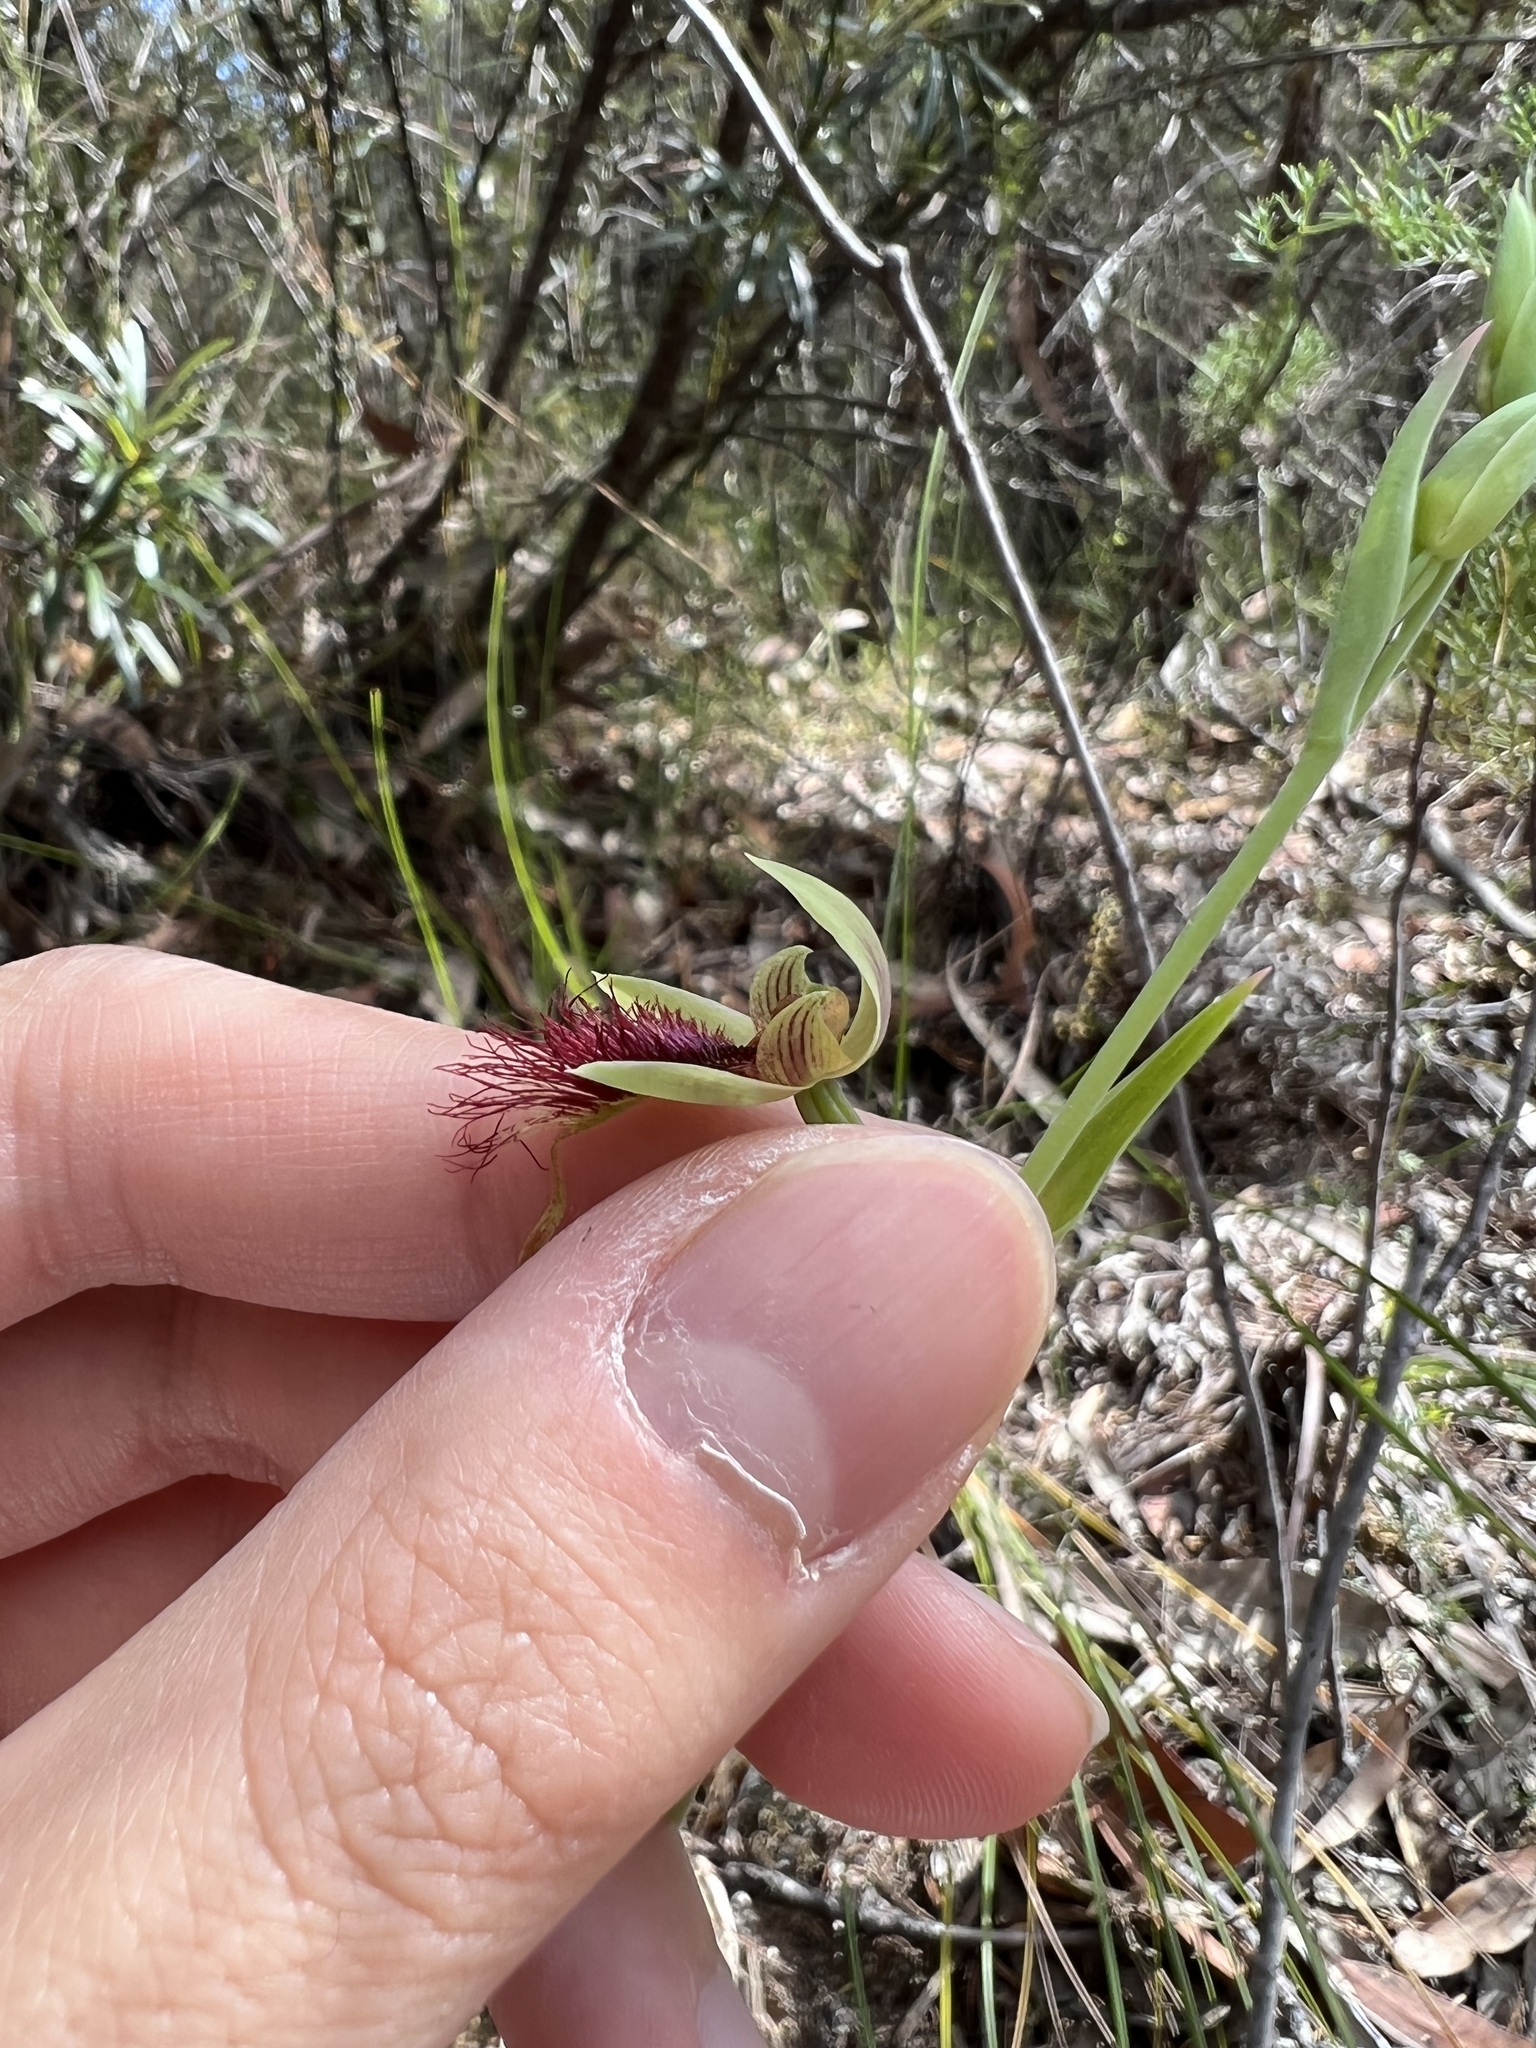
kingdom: Plantae
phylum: Tracheophyta
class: Liliopsida
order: Asparagales
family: Orchidaceae
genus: Calochilus
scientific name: Calochilus paludosus
